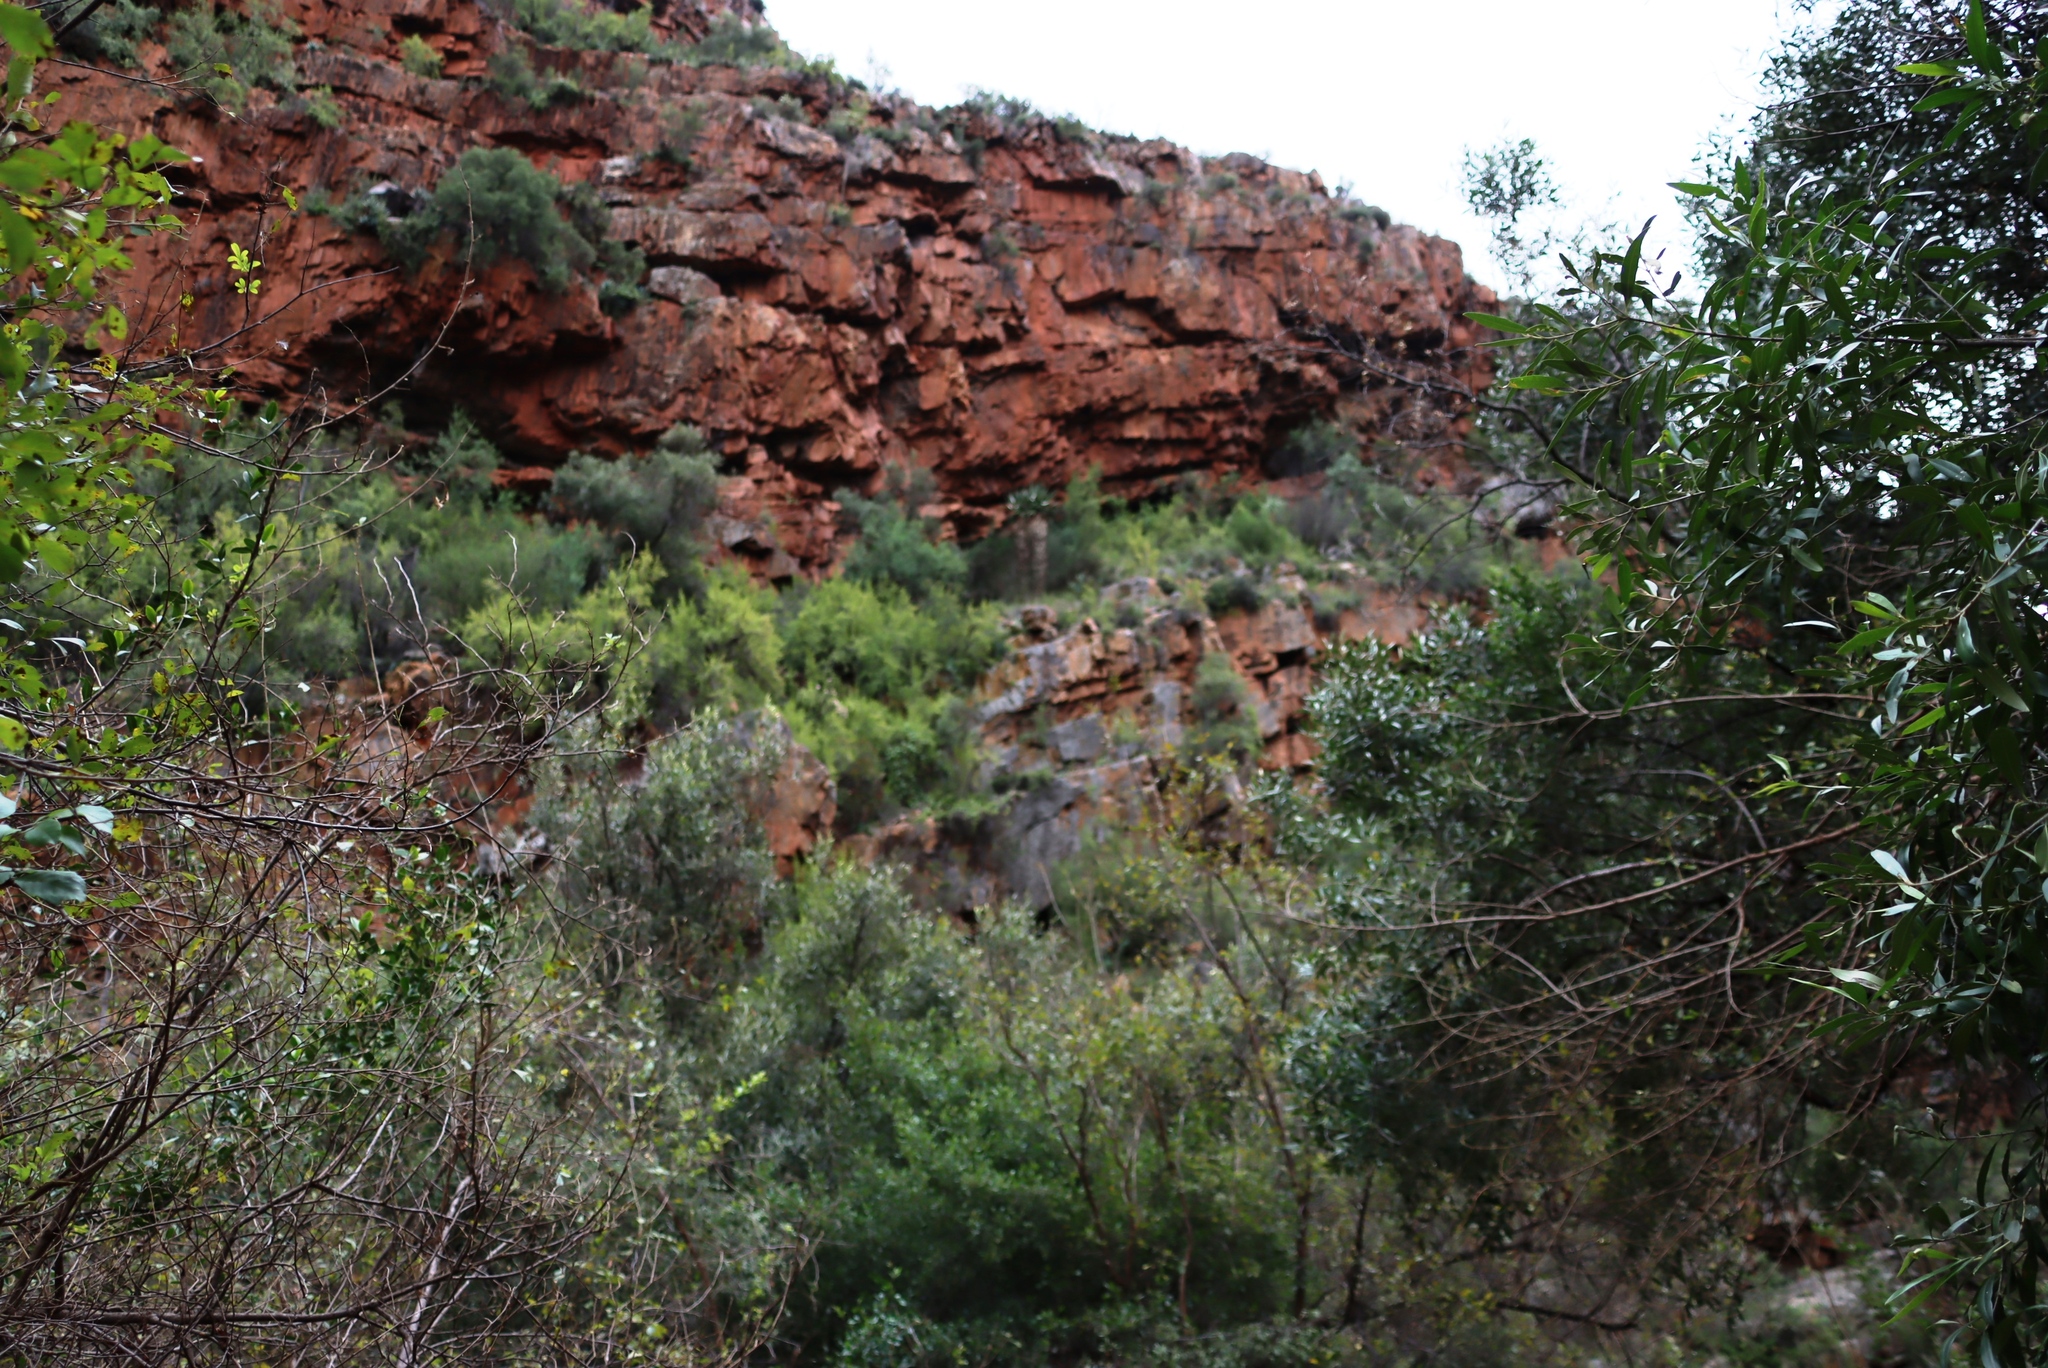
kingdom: Plantae
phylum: Tracheophyta
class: Magnoliopsida
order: Caryophyllales
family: Didiereaceae
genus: Portulacaria
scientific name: Portulacaria afra
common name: Elephant-bush
